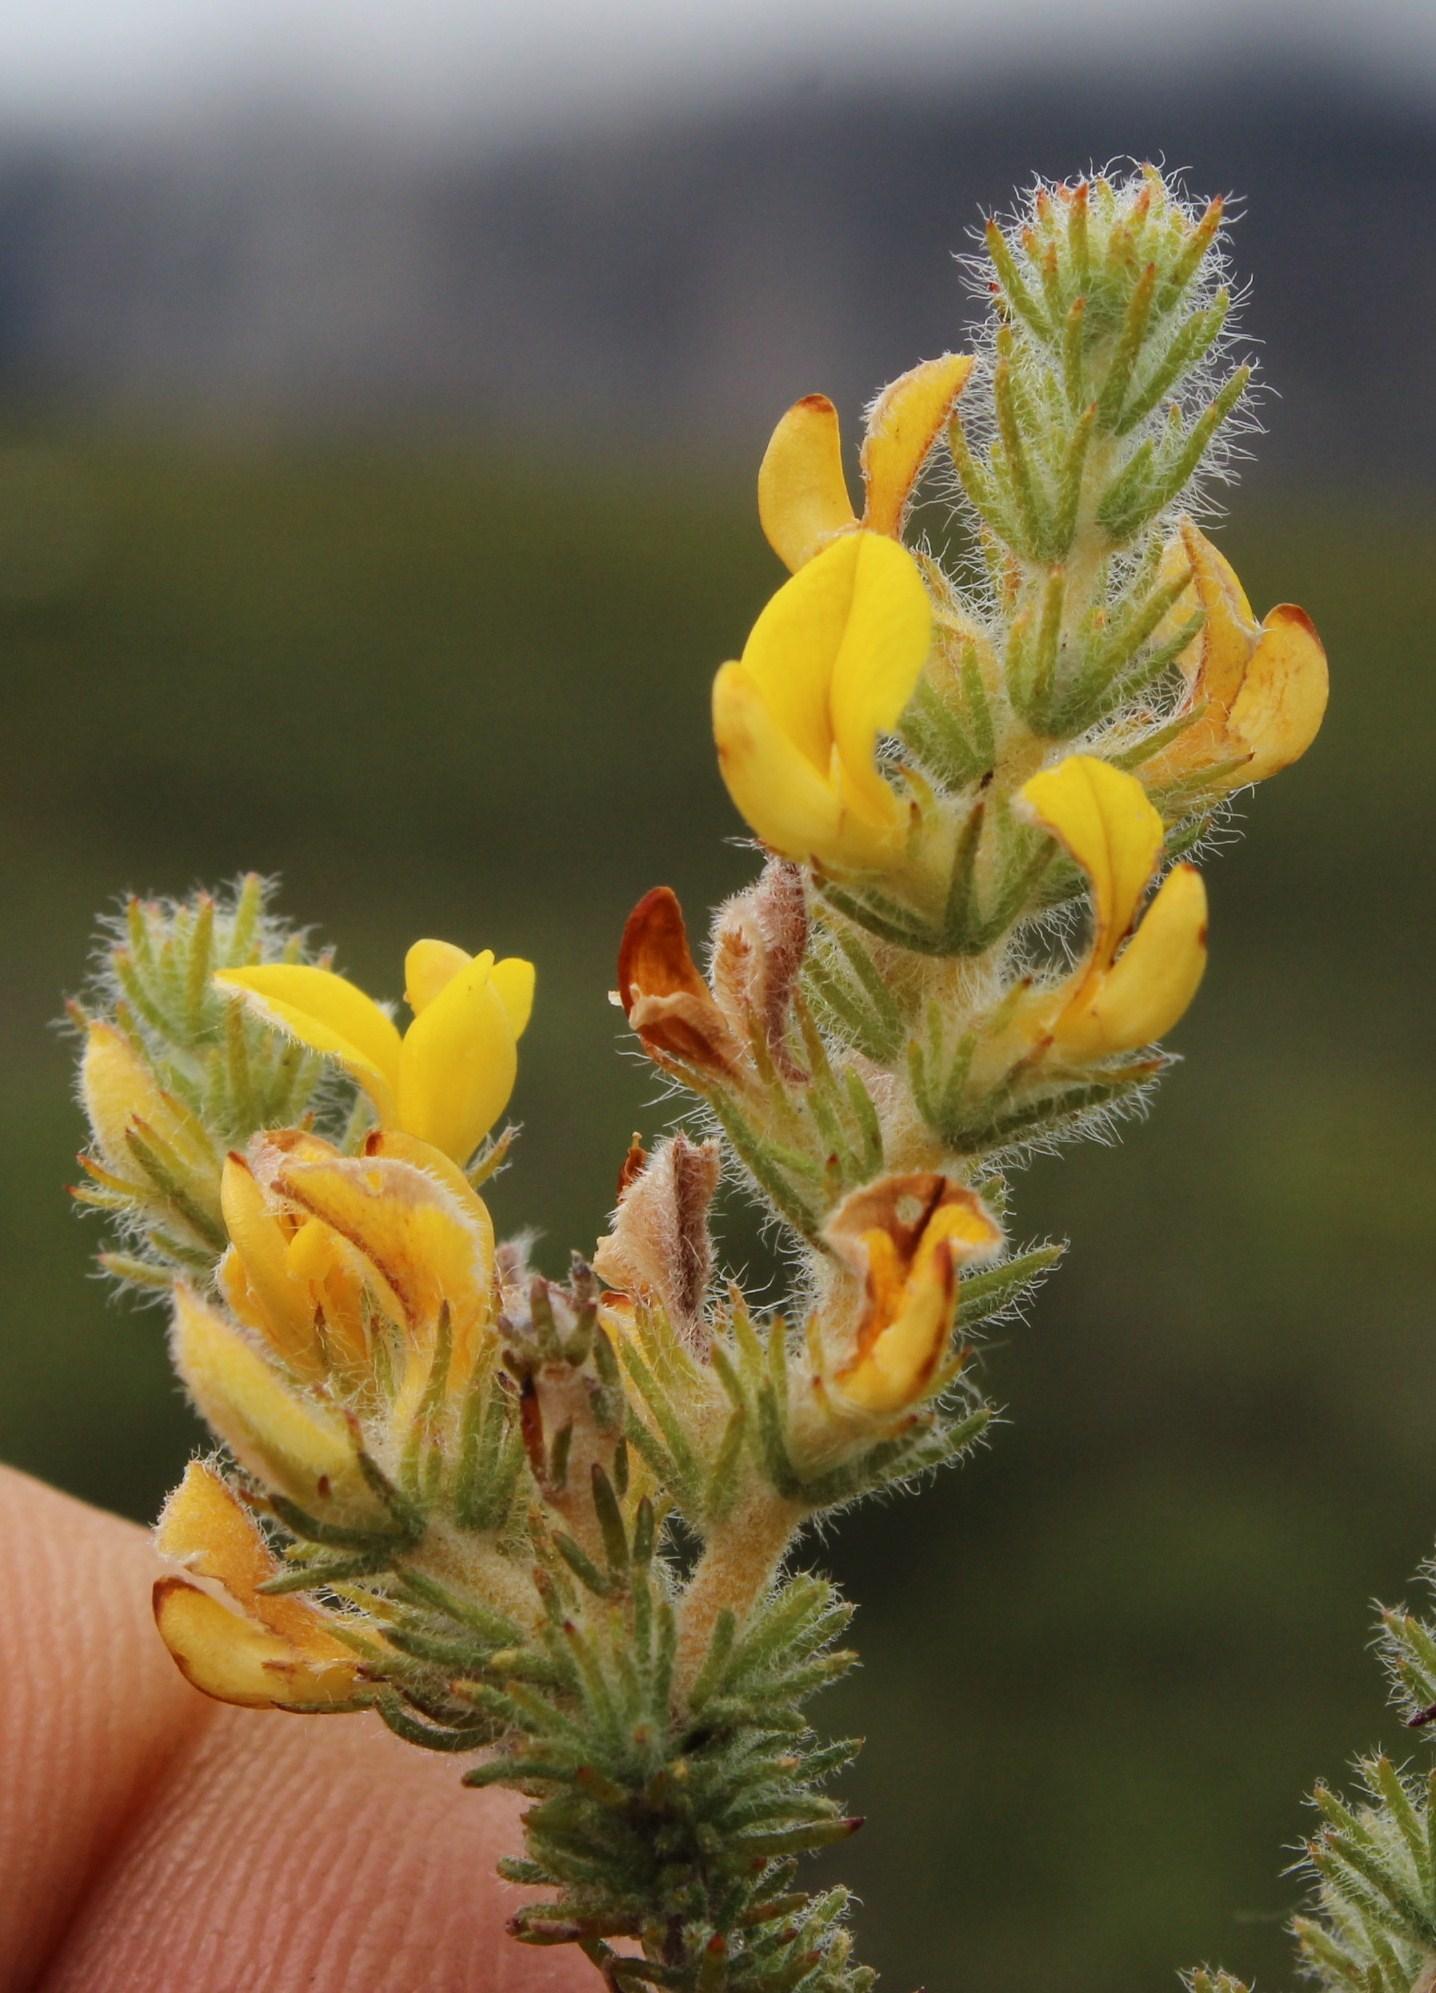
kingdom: Plantae
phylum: Tracheophyta
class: Magnoliopsida
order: Fabales
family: Fabaceae
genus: Aspalathus
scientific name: Aspalathus flexuosa
